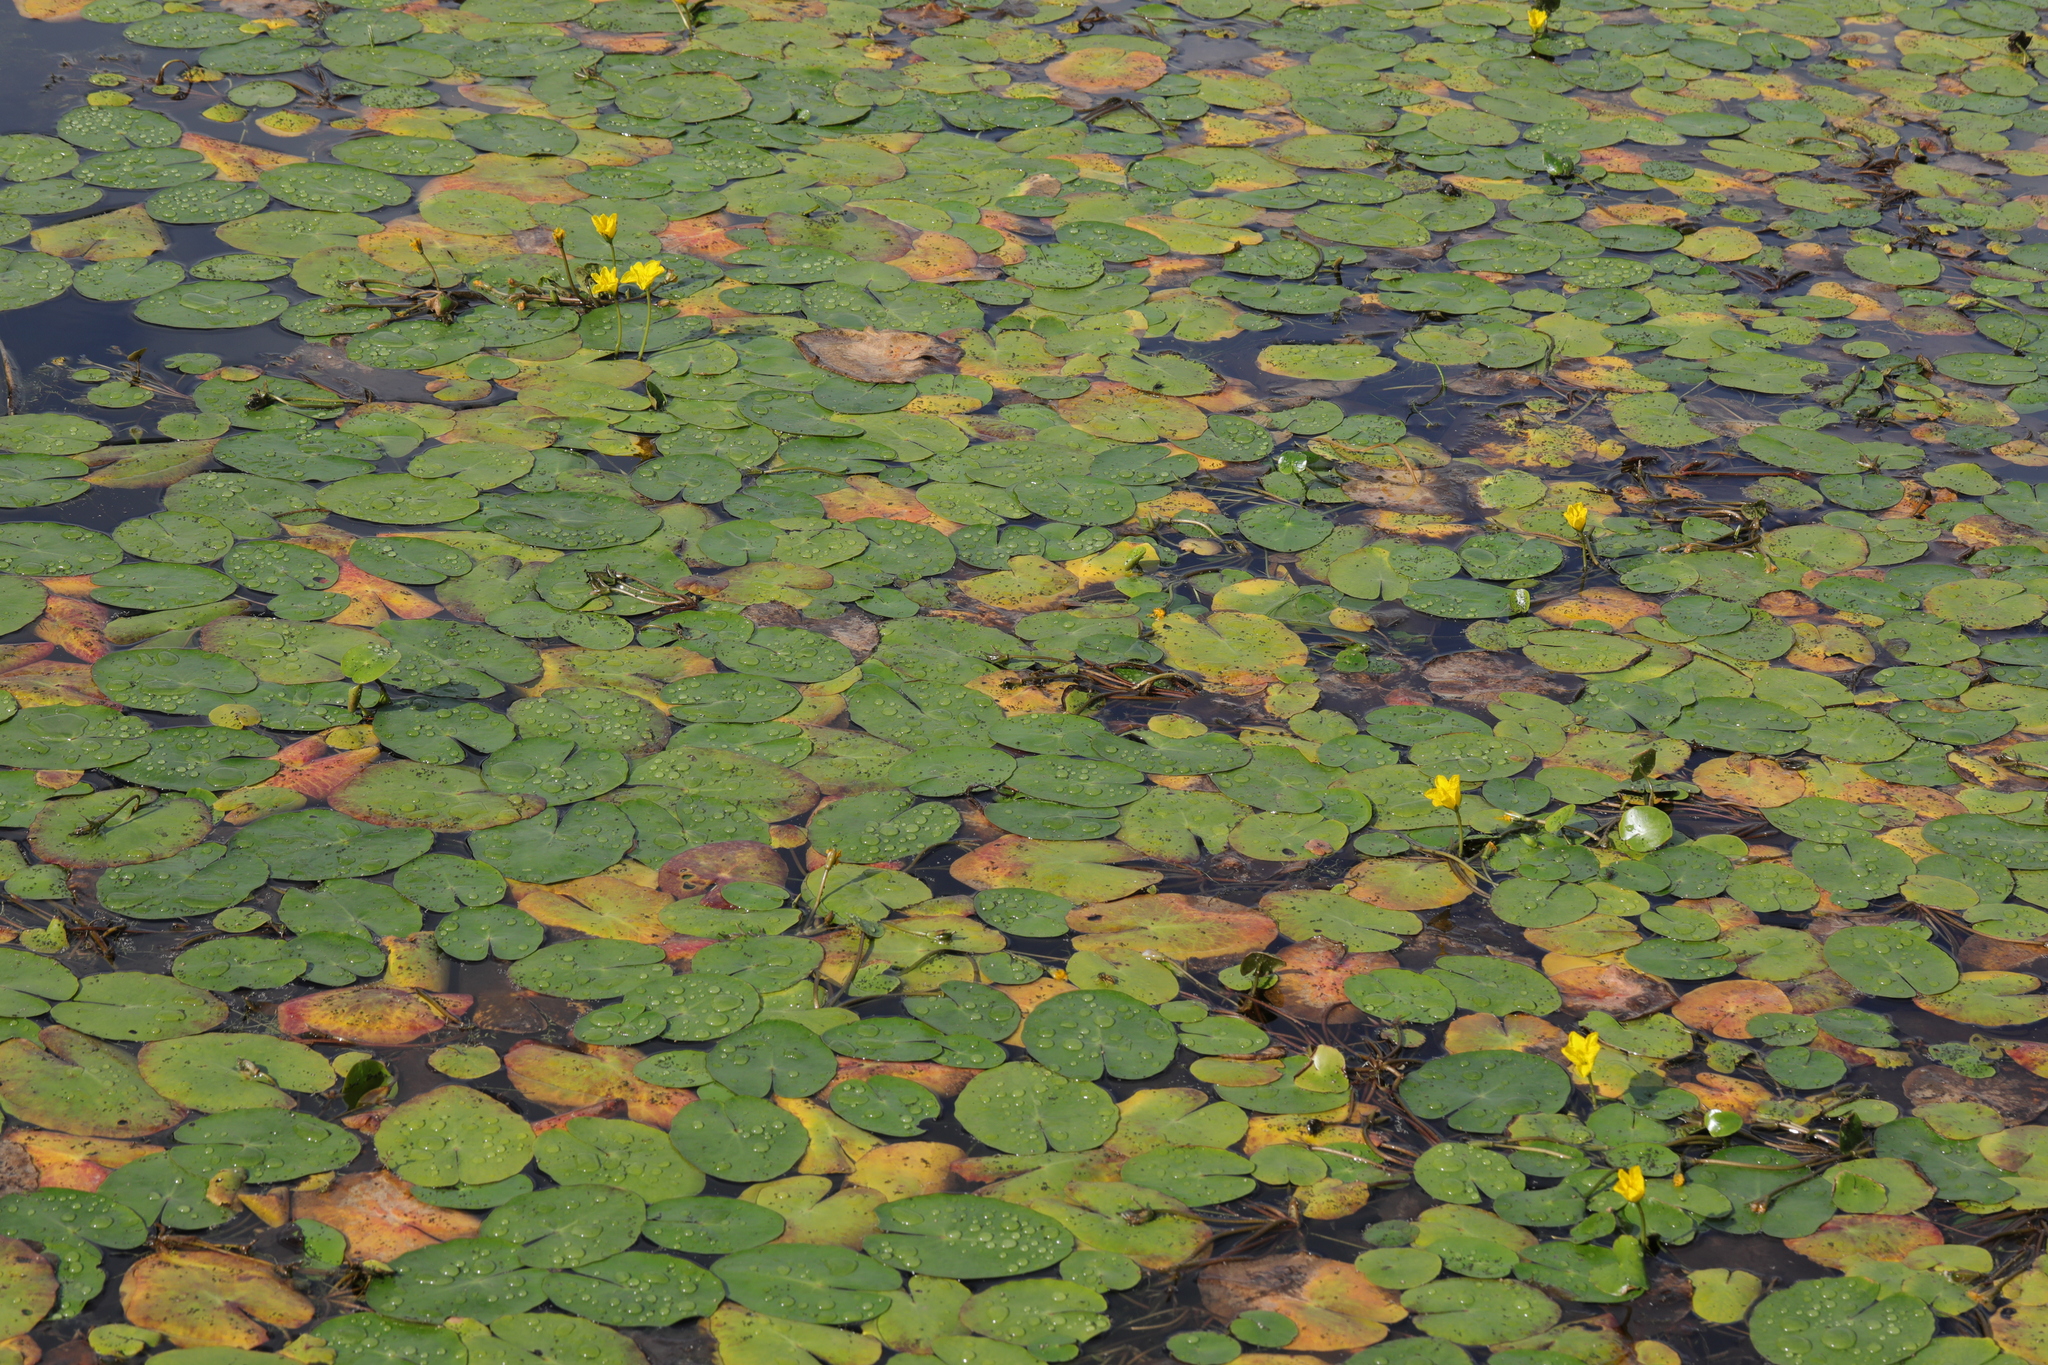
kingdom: Plantae
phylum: Tracheophyta
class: Magnoliopsida
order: Asterales
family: Menyanthaceae
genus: Nymphoides
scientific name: Nymphoides peltata
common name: Fringed water-lily
